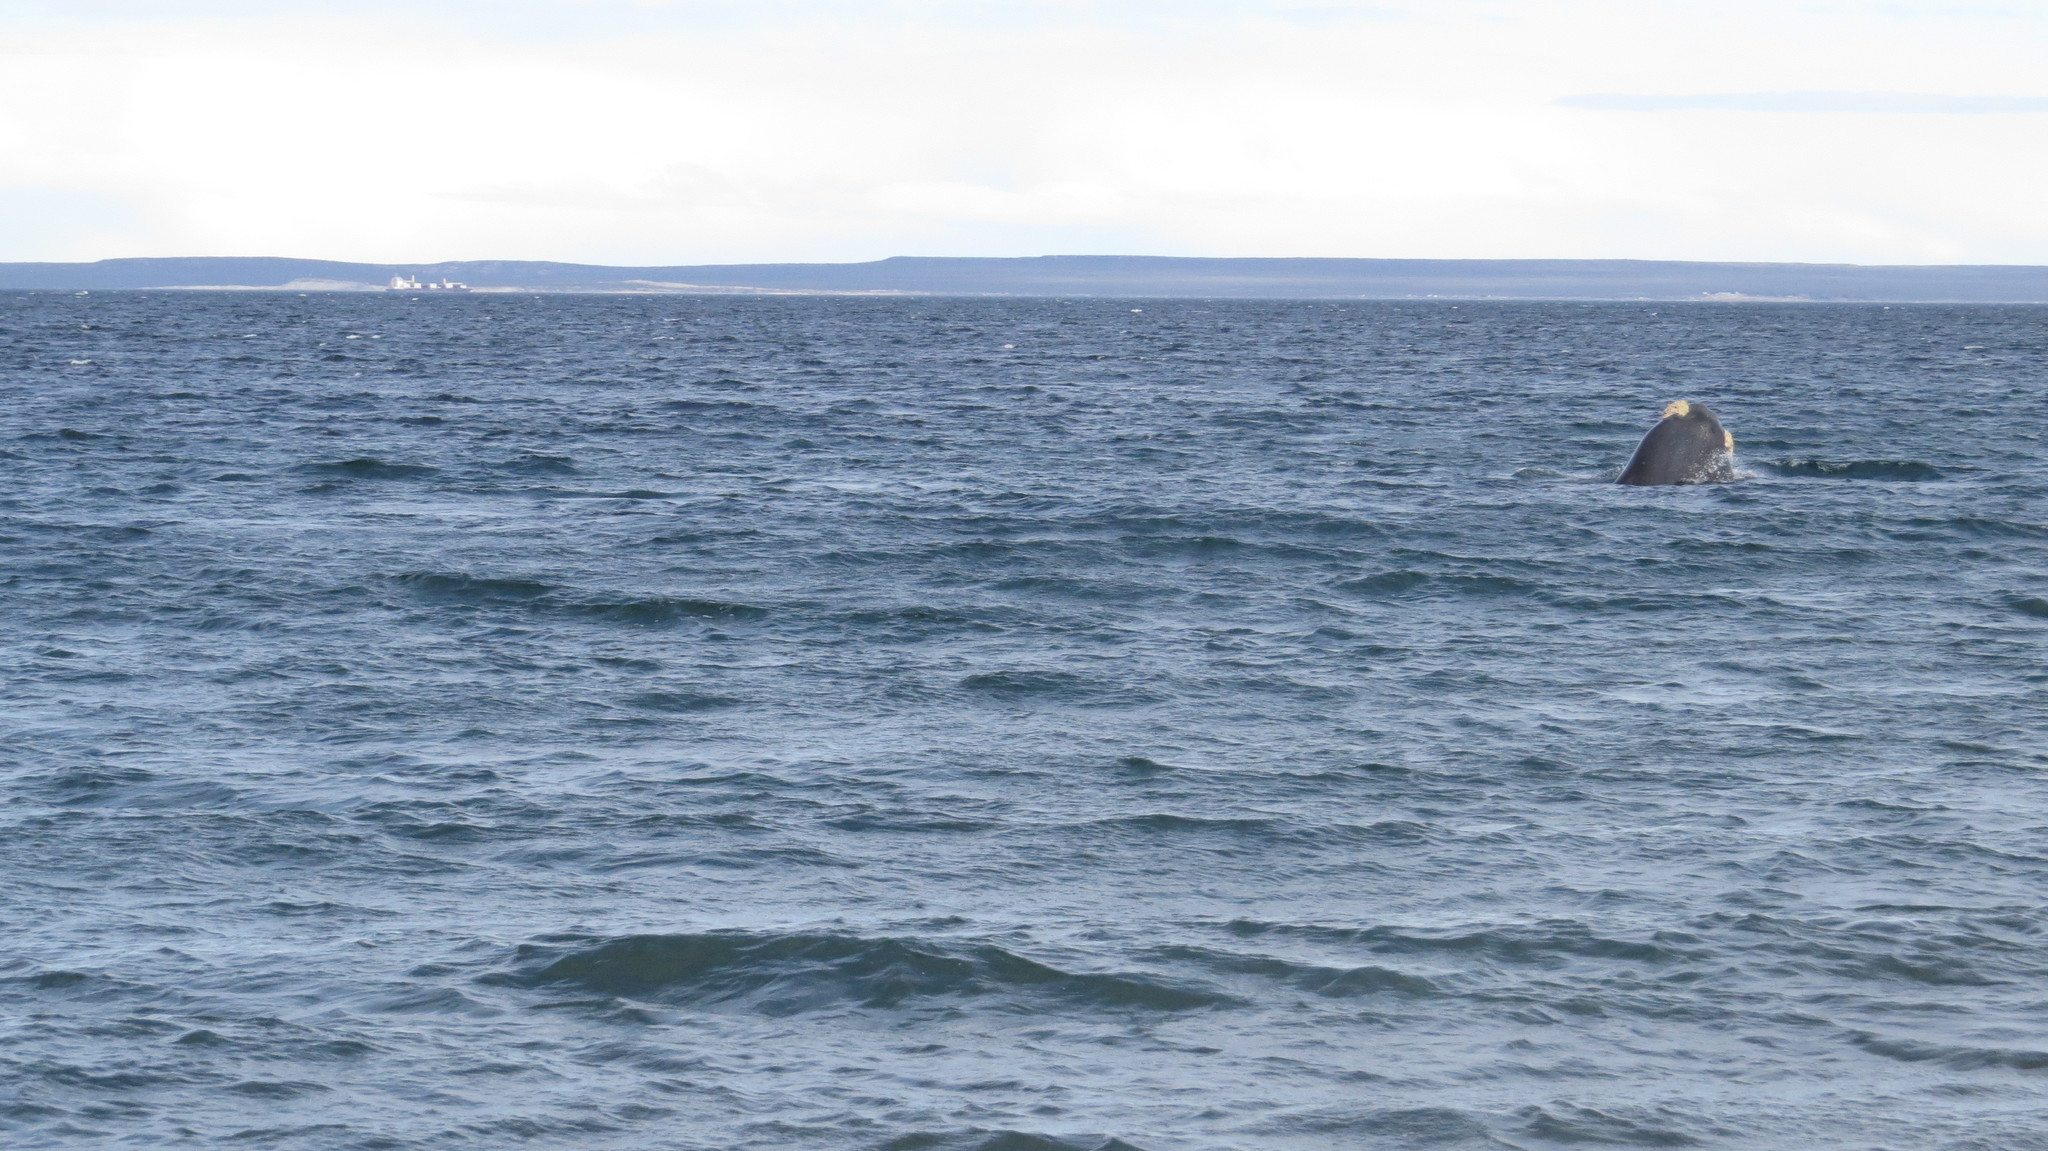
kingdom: Animalia
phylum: Chordata
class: Mammalia
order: Cetacea
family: Balaenidae
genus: Eubalaena
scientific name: Eubalaena australis
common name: Southern right whale
